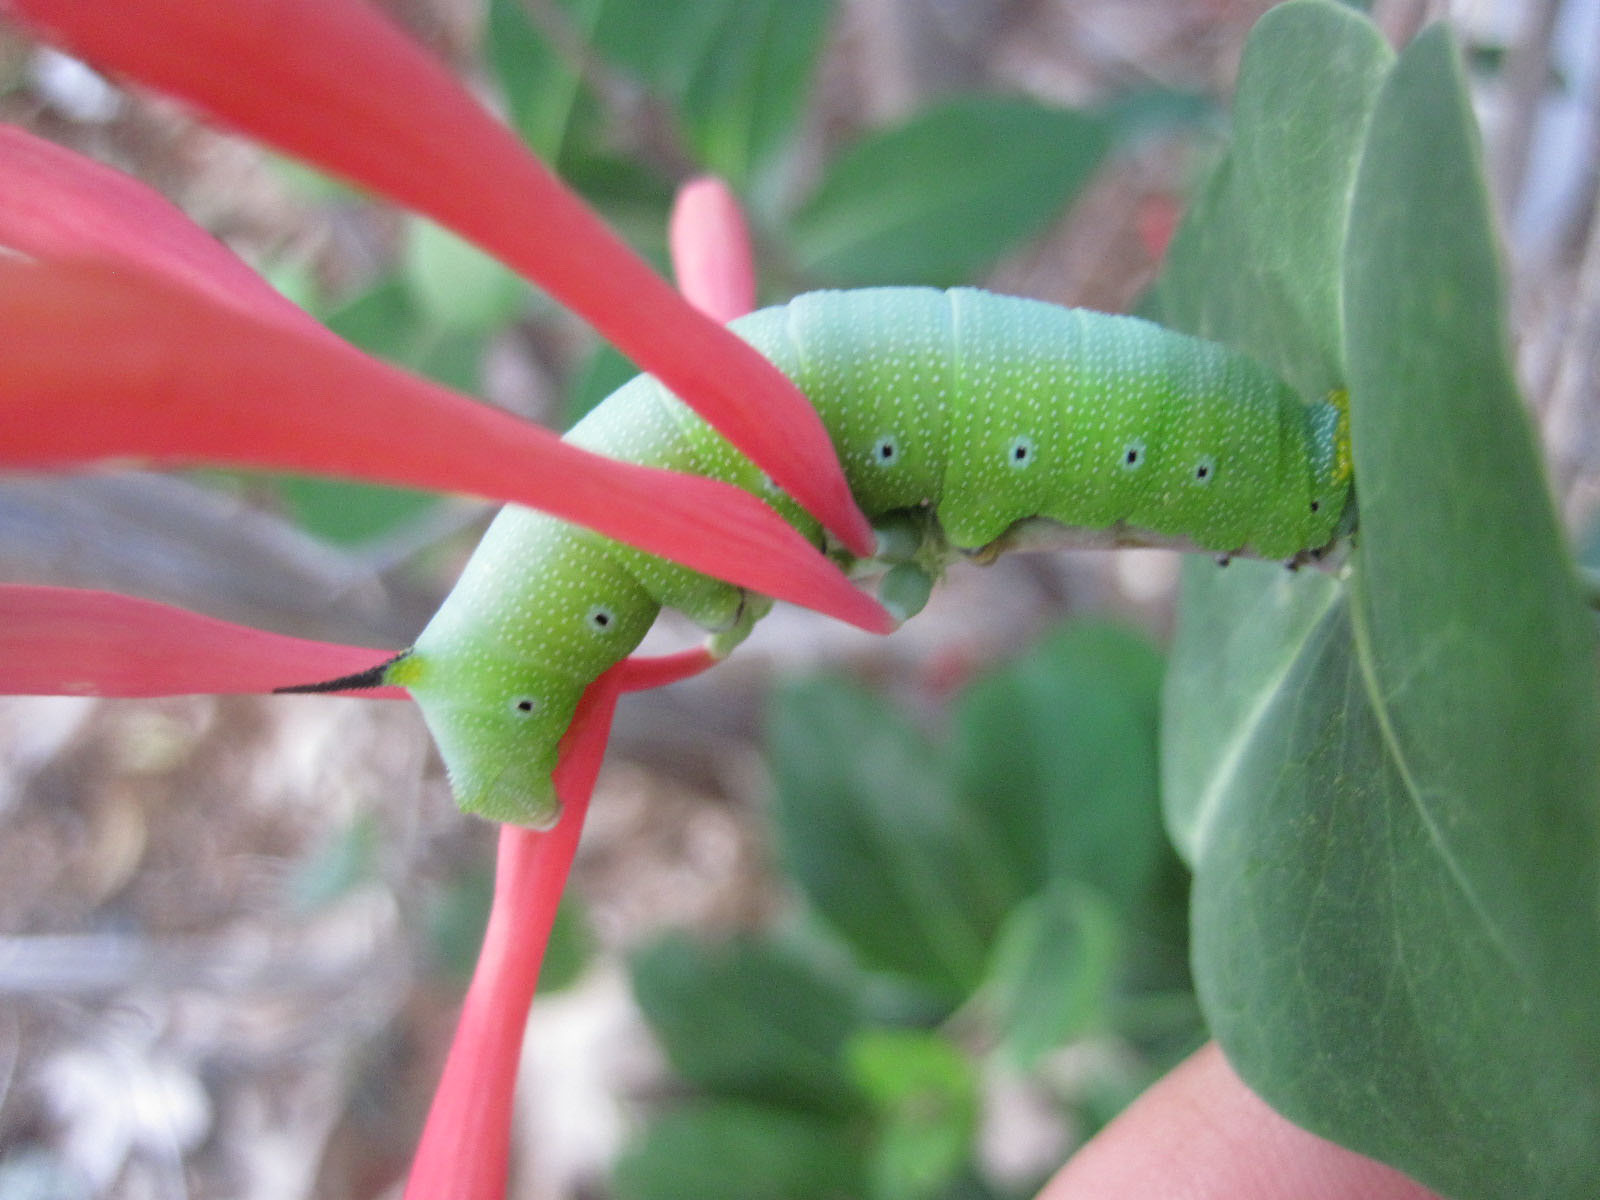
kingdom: Animalia
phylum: Arthropoda
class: Insecta
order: Lepidoptera
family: Sphingidae
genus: Hemaris
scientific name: Hemaris diffinis
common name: Bumblebee moth
